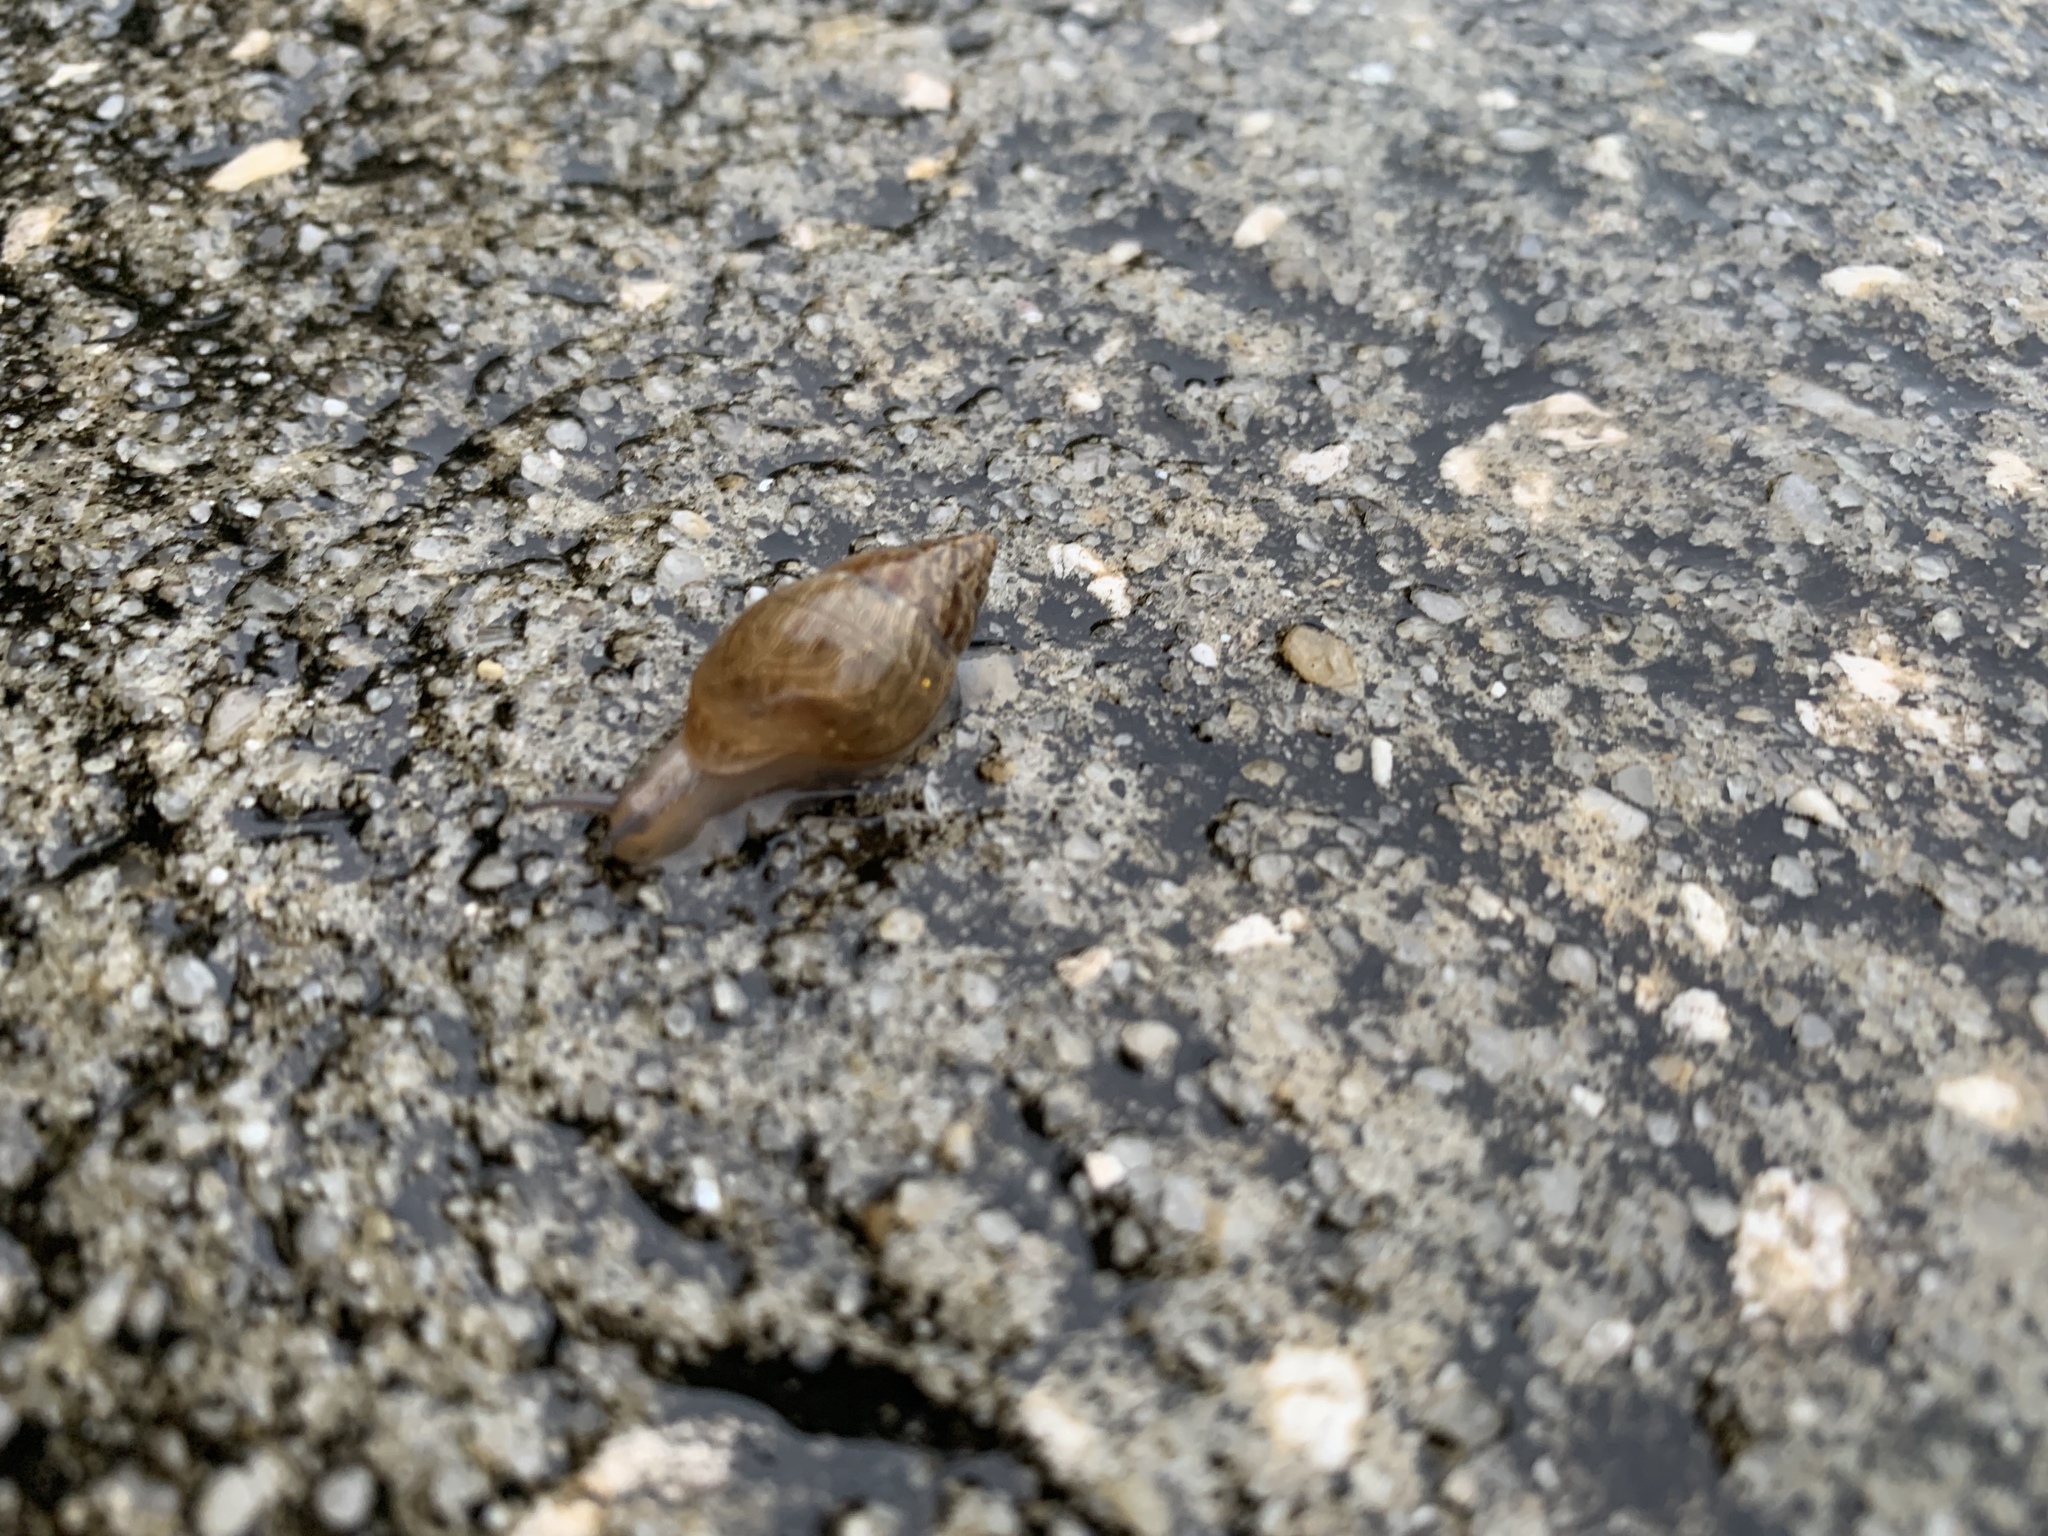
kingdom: Animalia
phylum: Mollusca
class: Gastropoda
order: Stylommatophora
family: Bulimulidae
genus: Bulimulus
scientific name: Bulimulus bonariensis
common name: Snail
